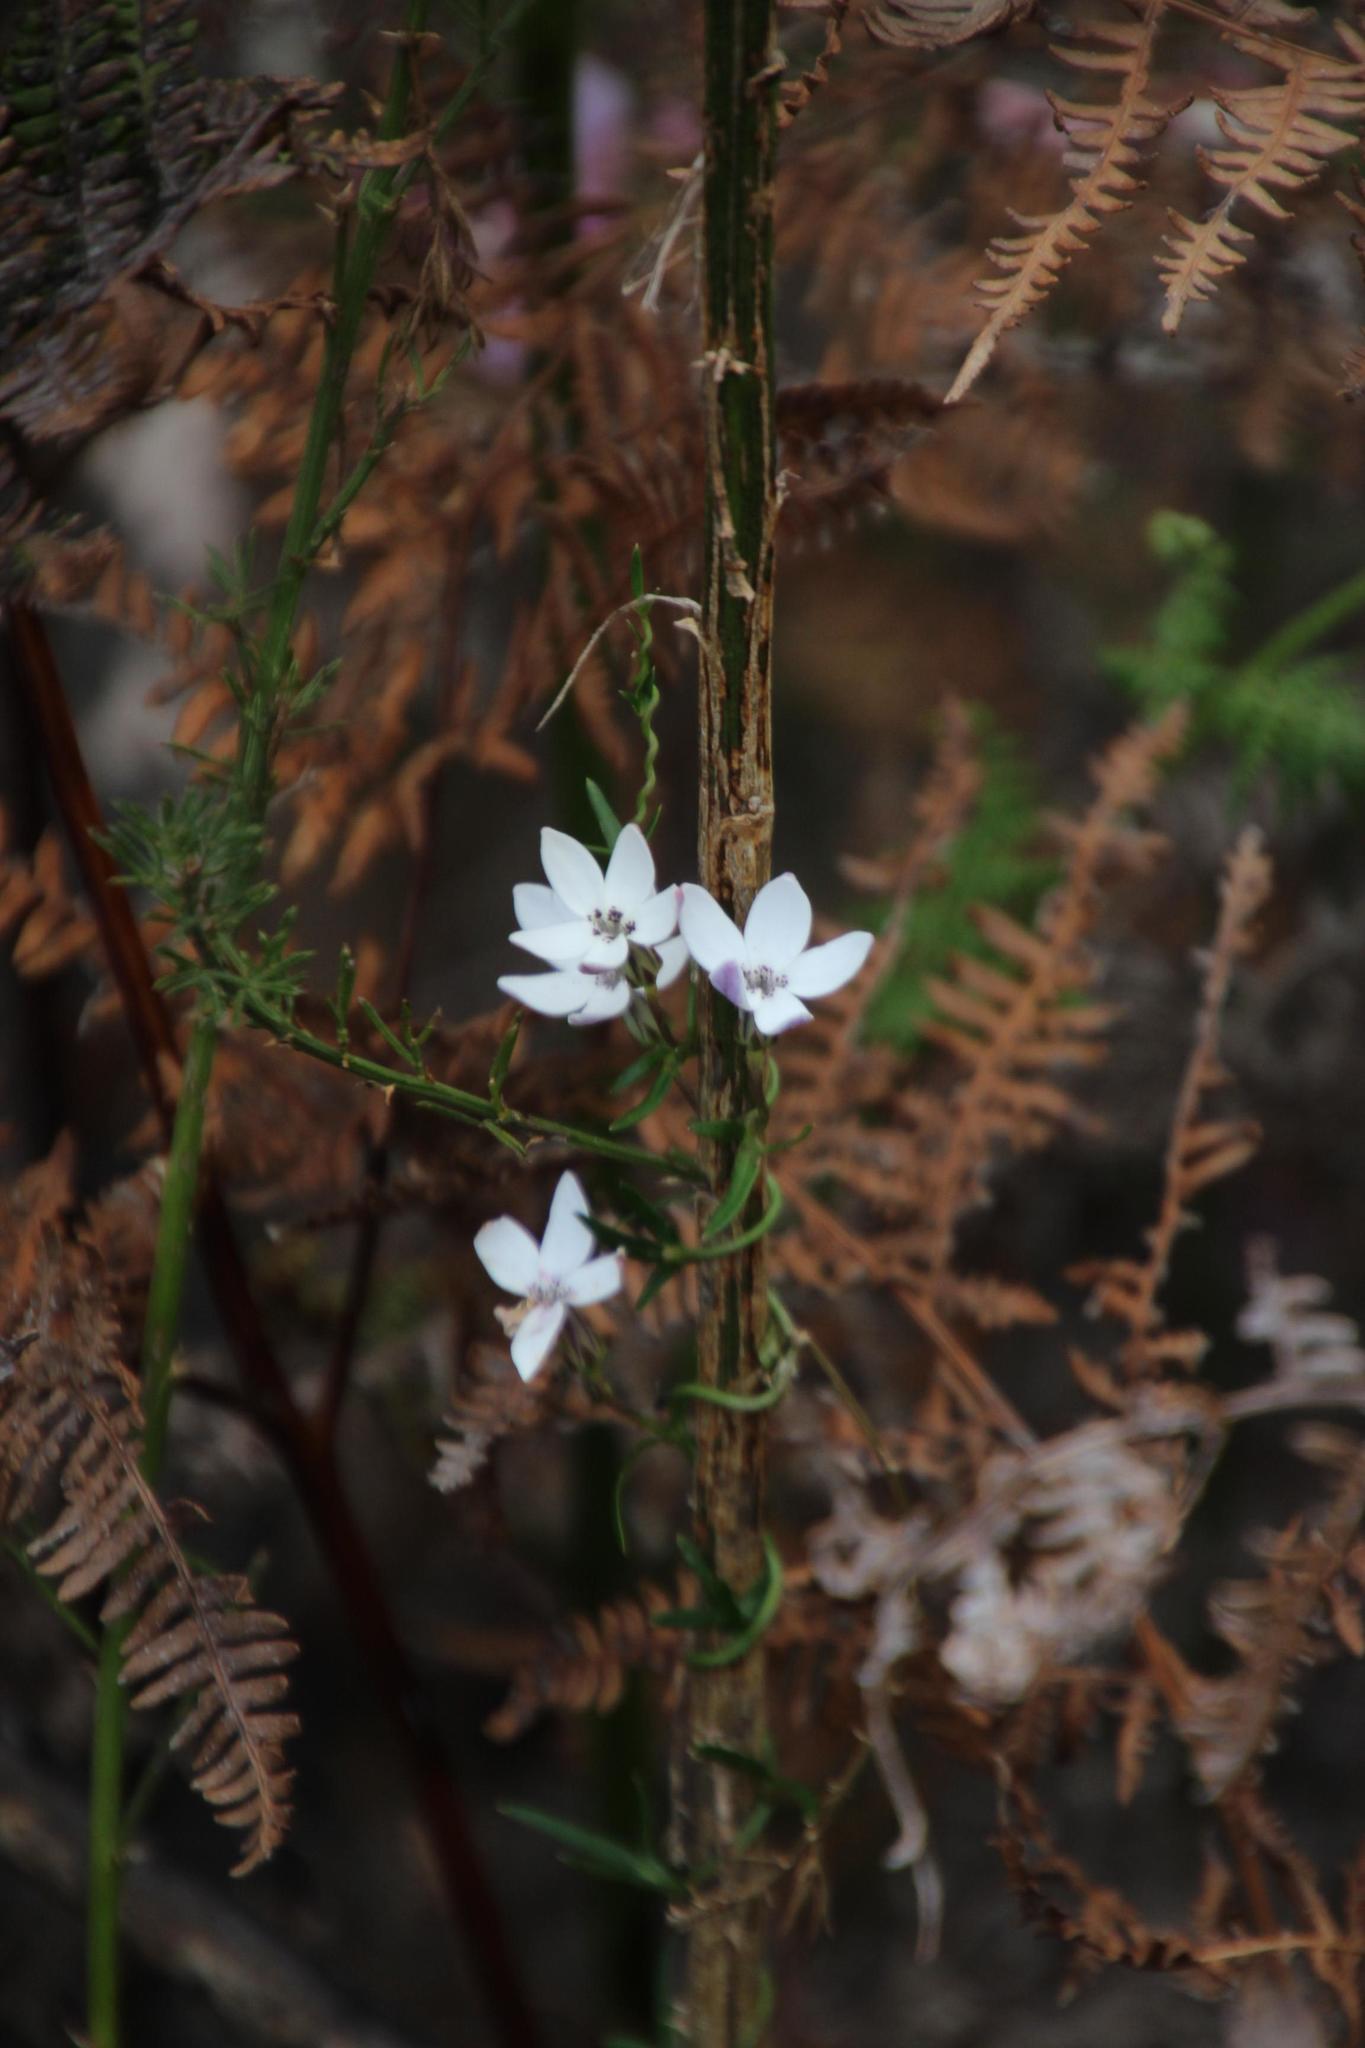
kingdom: Plantae
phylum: Tracheophyta
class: Magnoliopsida
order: Asterales
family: Campanulaceae
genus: Cyphia
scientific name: Cyphia volubilis
